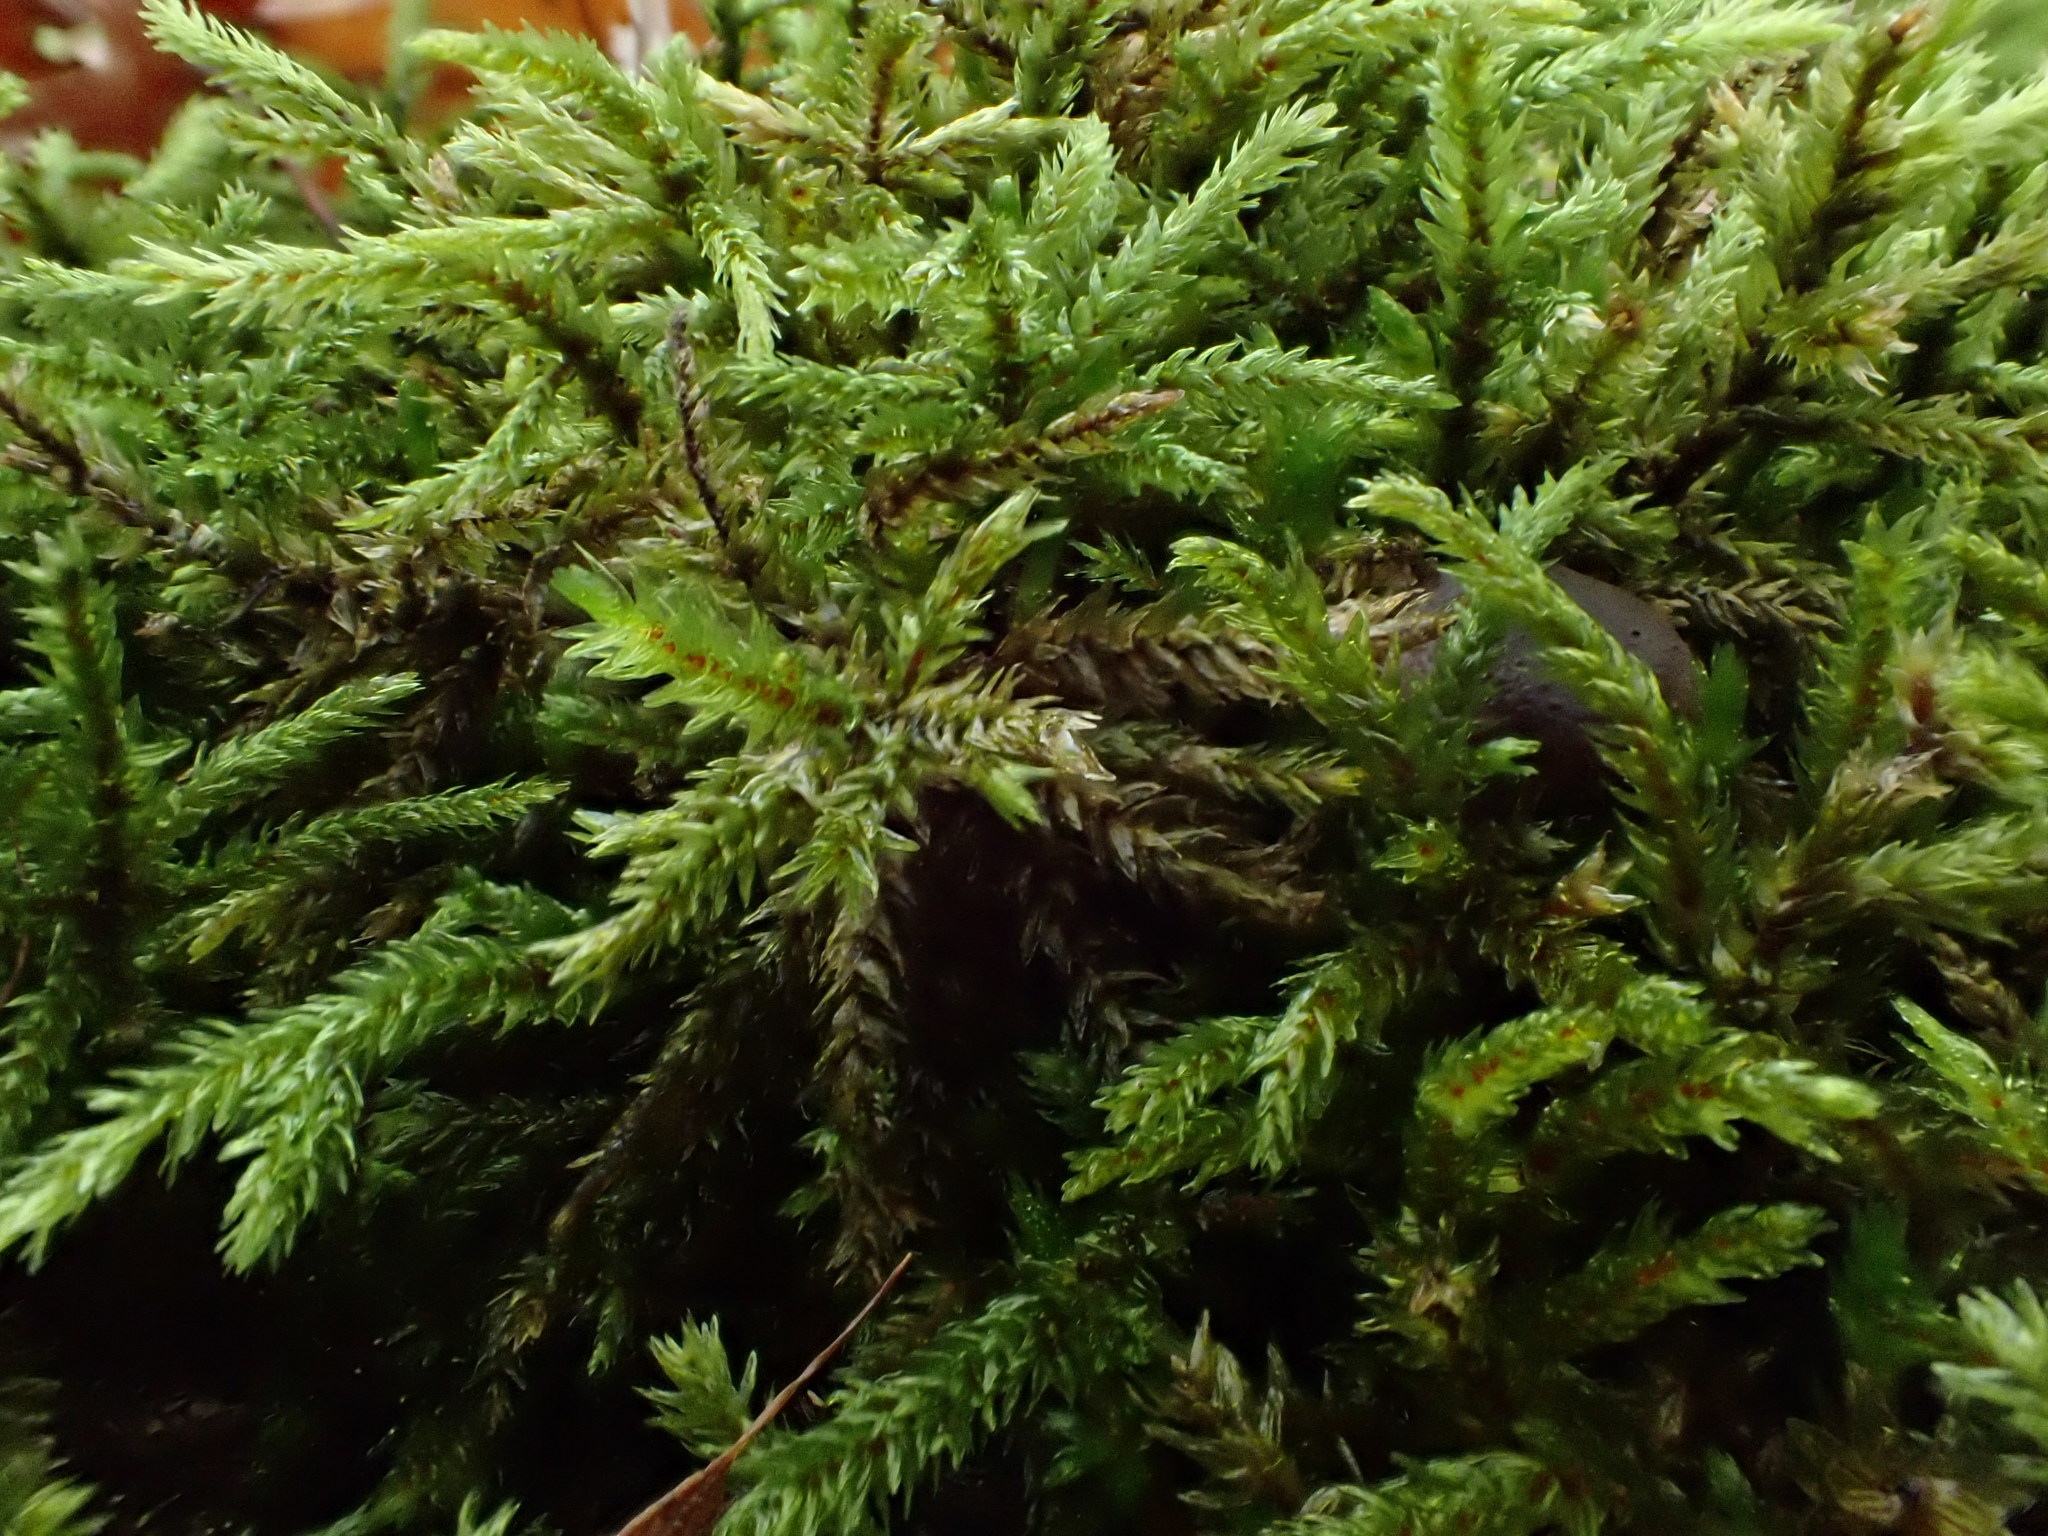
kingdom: Animalia
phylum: Chordata
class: Amphibia
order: Anura
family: Hylidae
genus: Pseudacris
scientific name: Pseudacris crucifer
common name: Spring peeper
